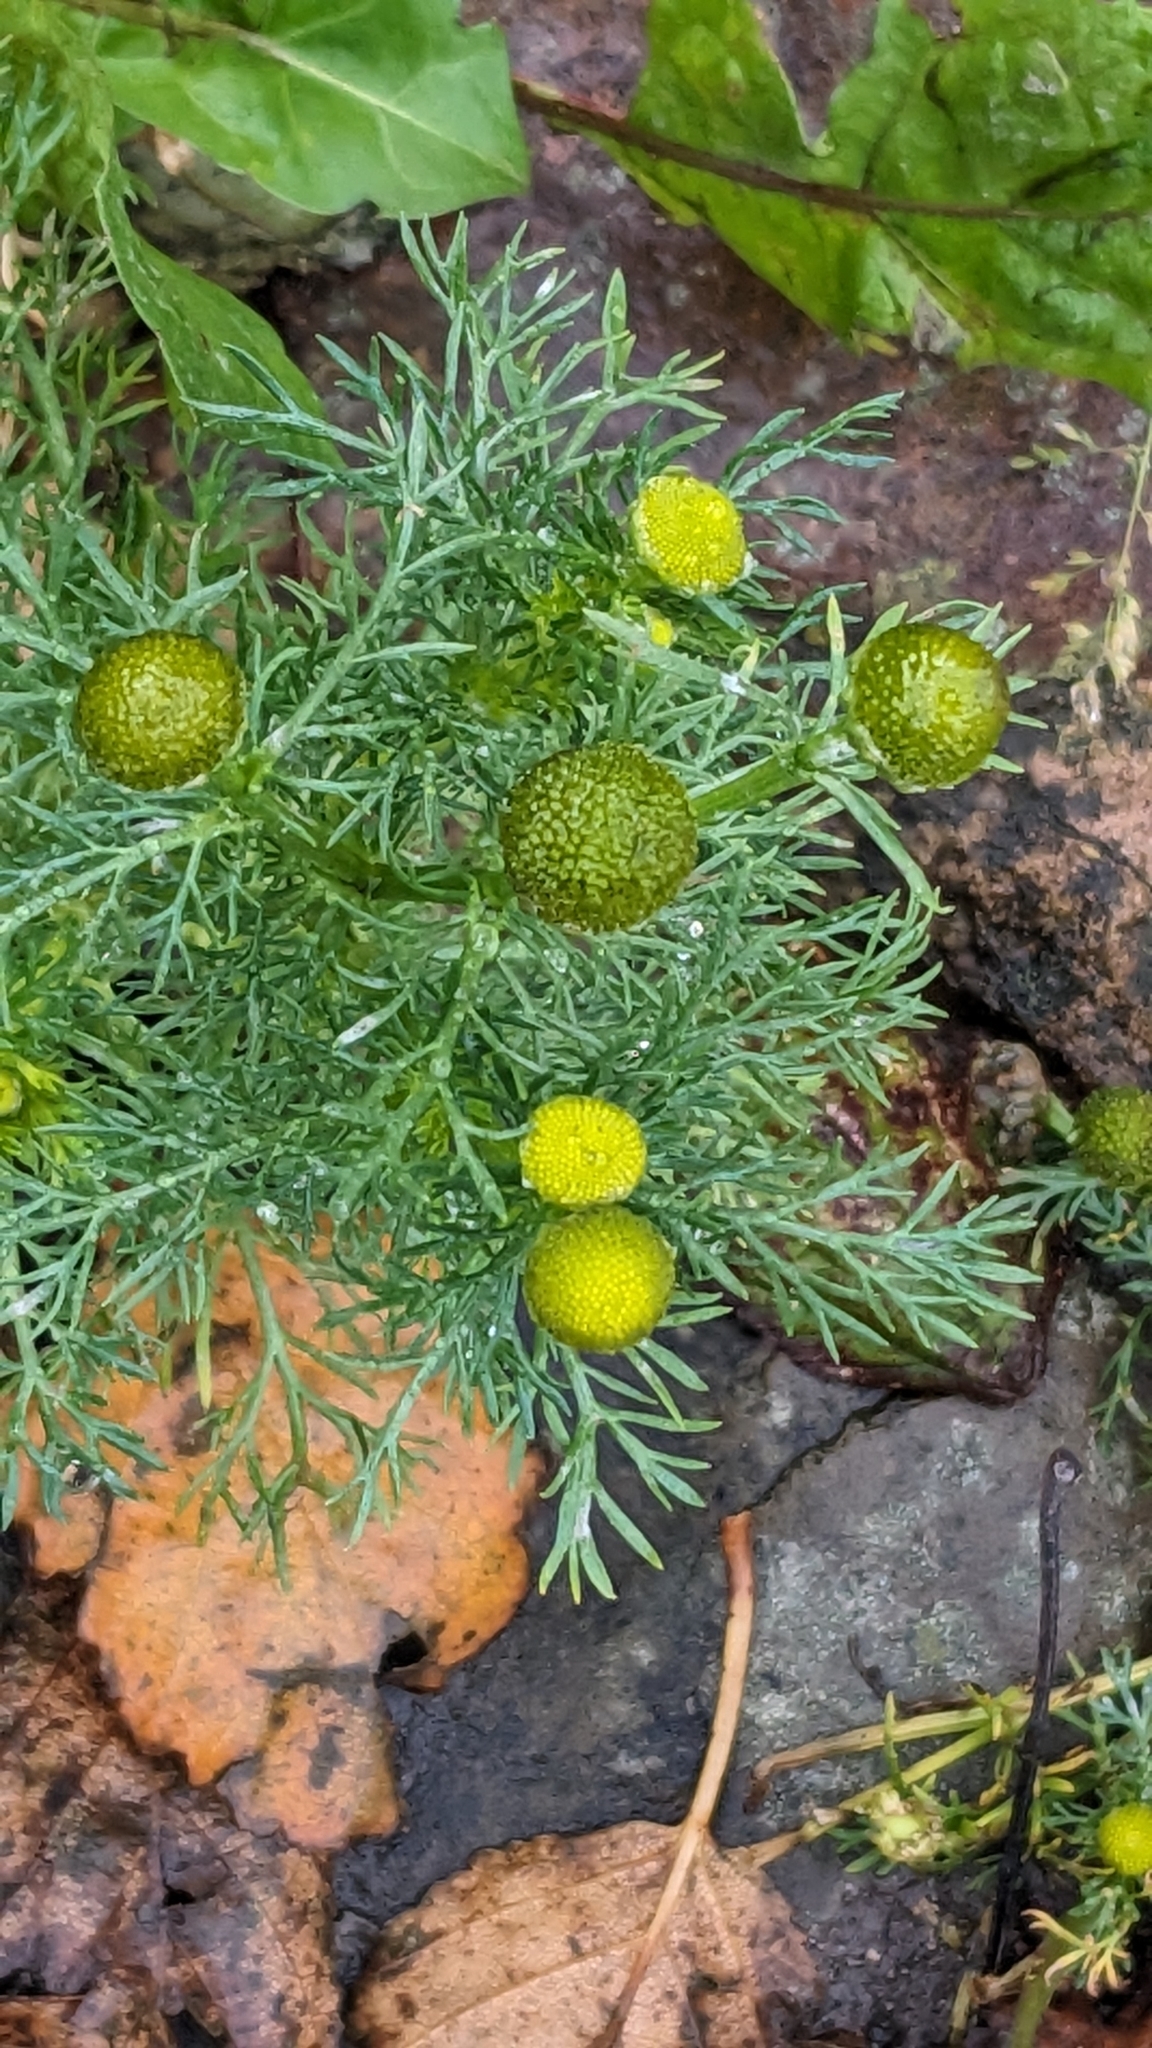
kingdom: Plantae
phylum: Tracheophyta
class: Magnoliopsida
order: Asterales
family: Asteraceae
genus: Matricaria
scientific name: Matricaria discoidea
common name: Disc mayweed
